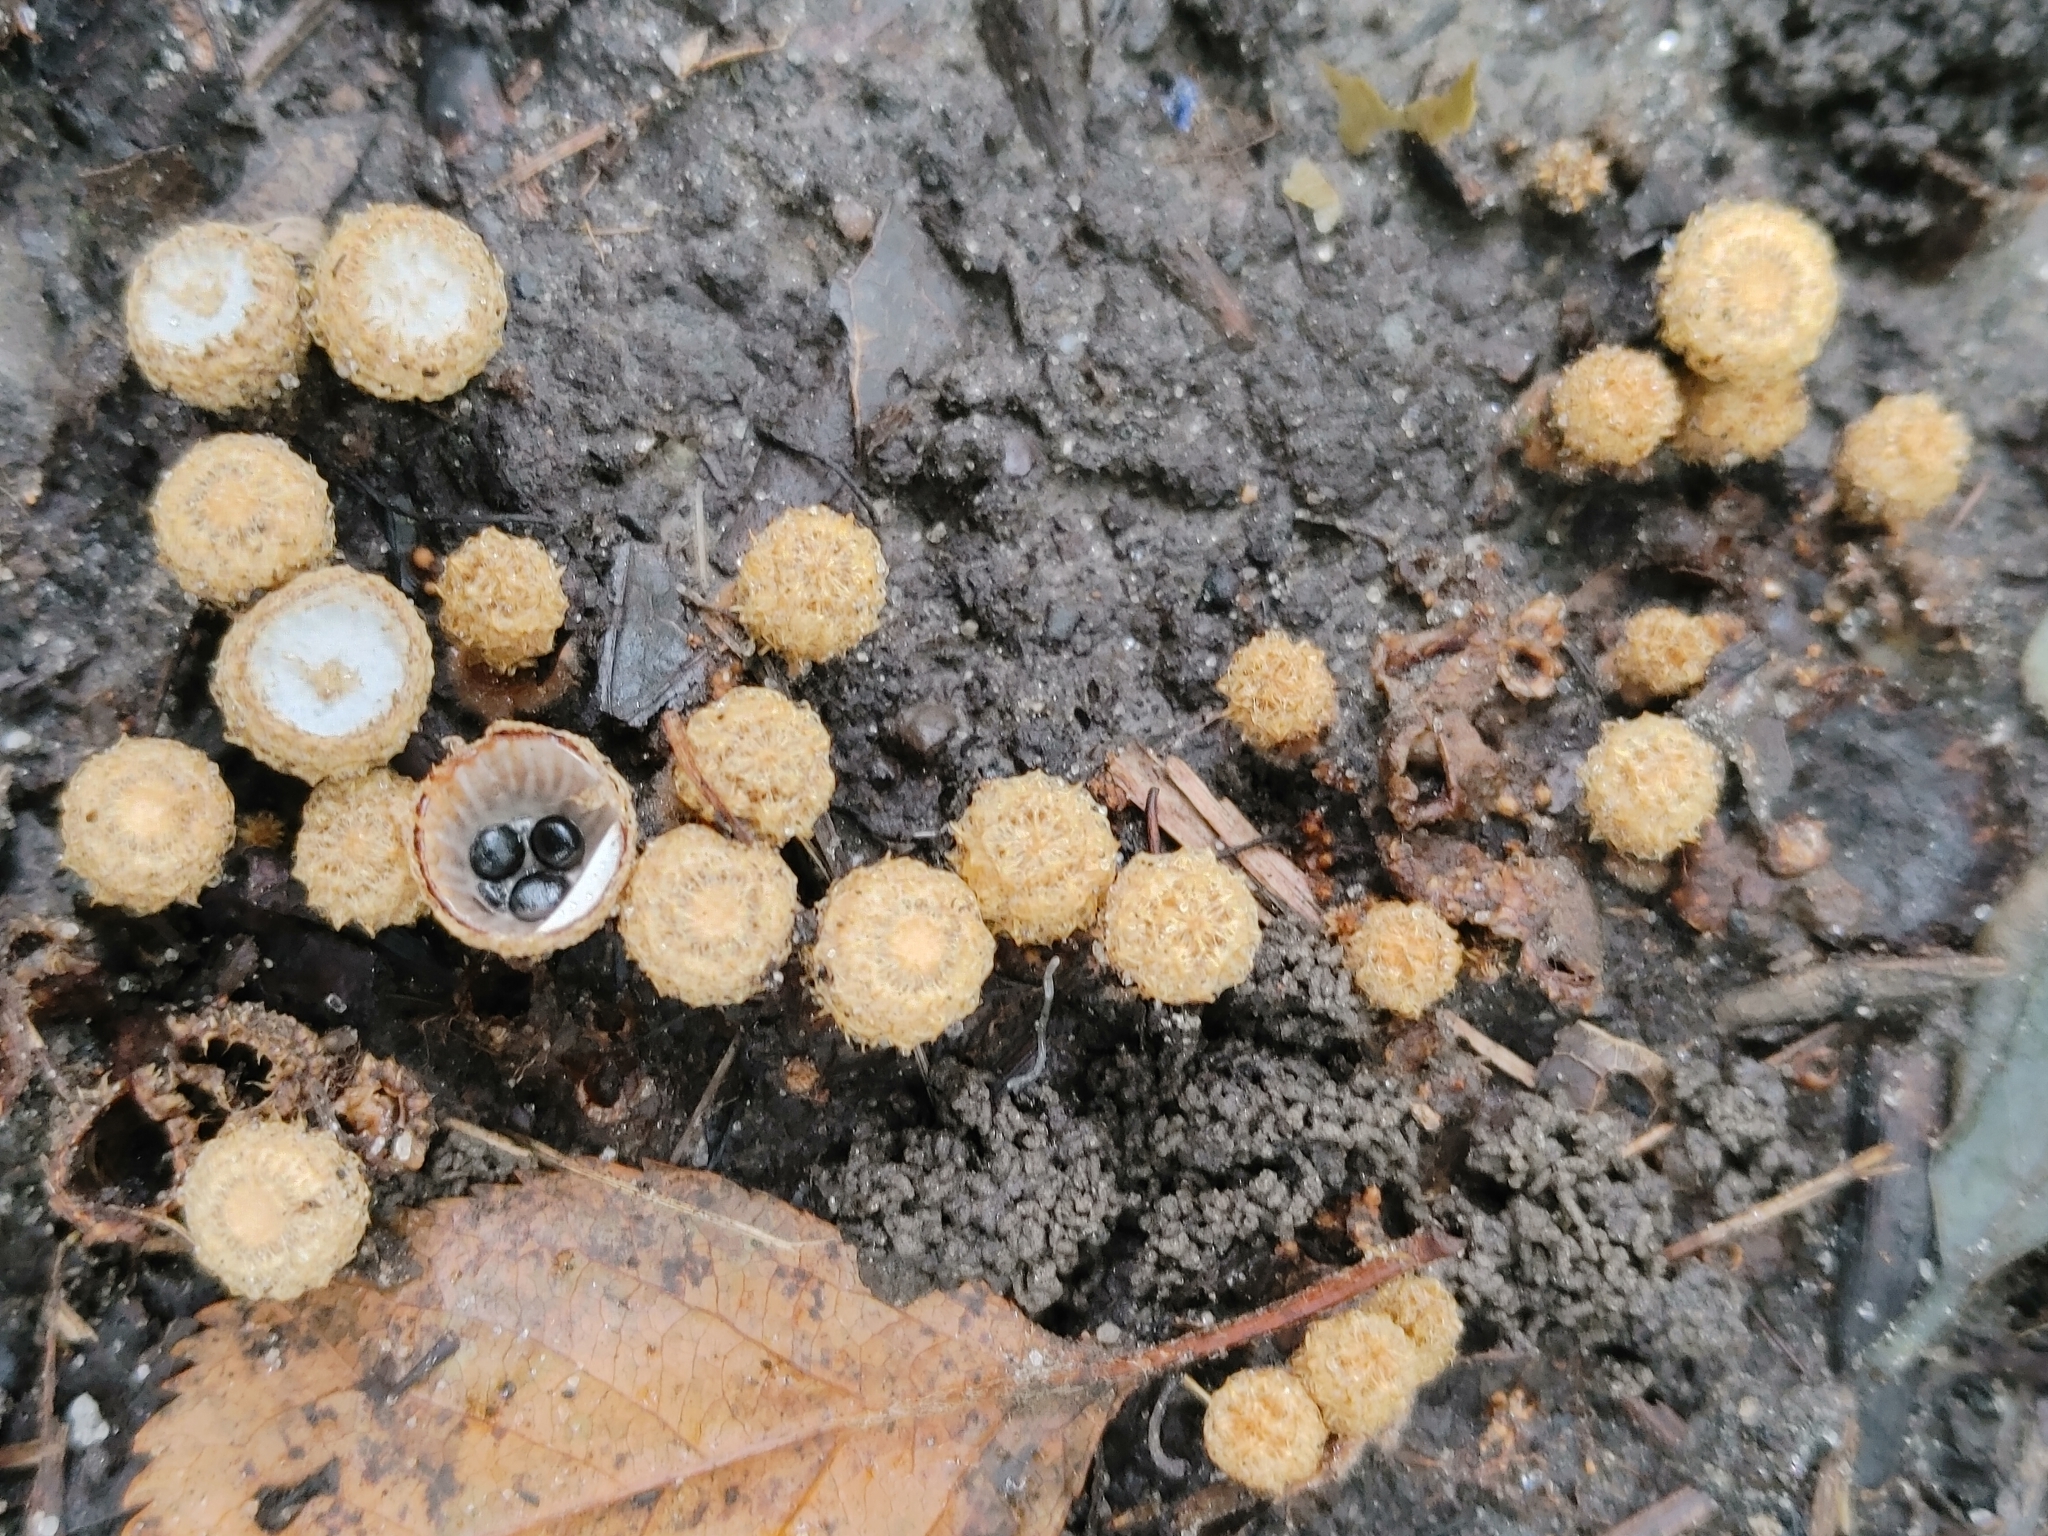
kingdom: Fungi
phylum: Basidiomycota
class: Agaricomycetes
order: Agaricales
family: Agaricaceae
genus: Cyathus
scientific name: Cyathus stercoreus
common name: Dung bird's nest
